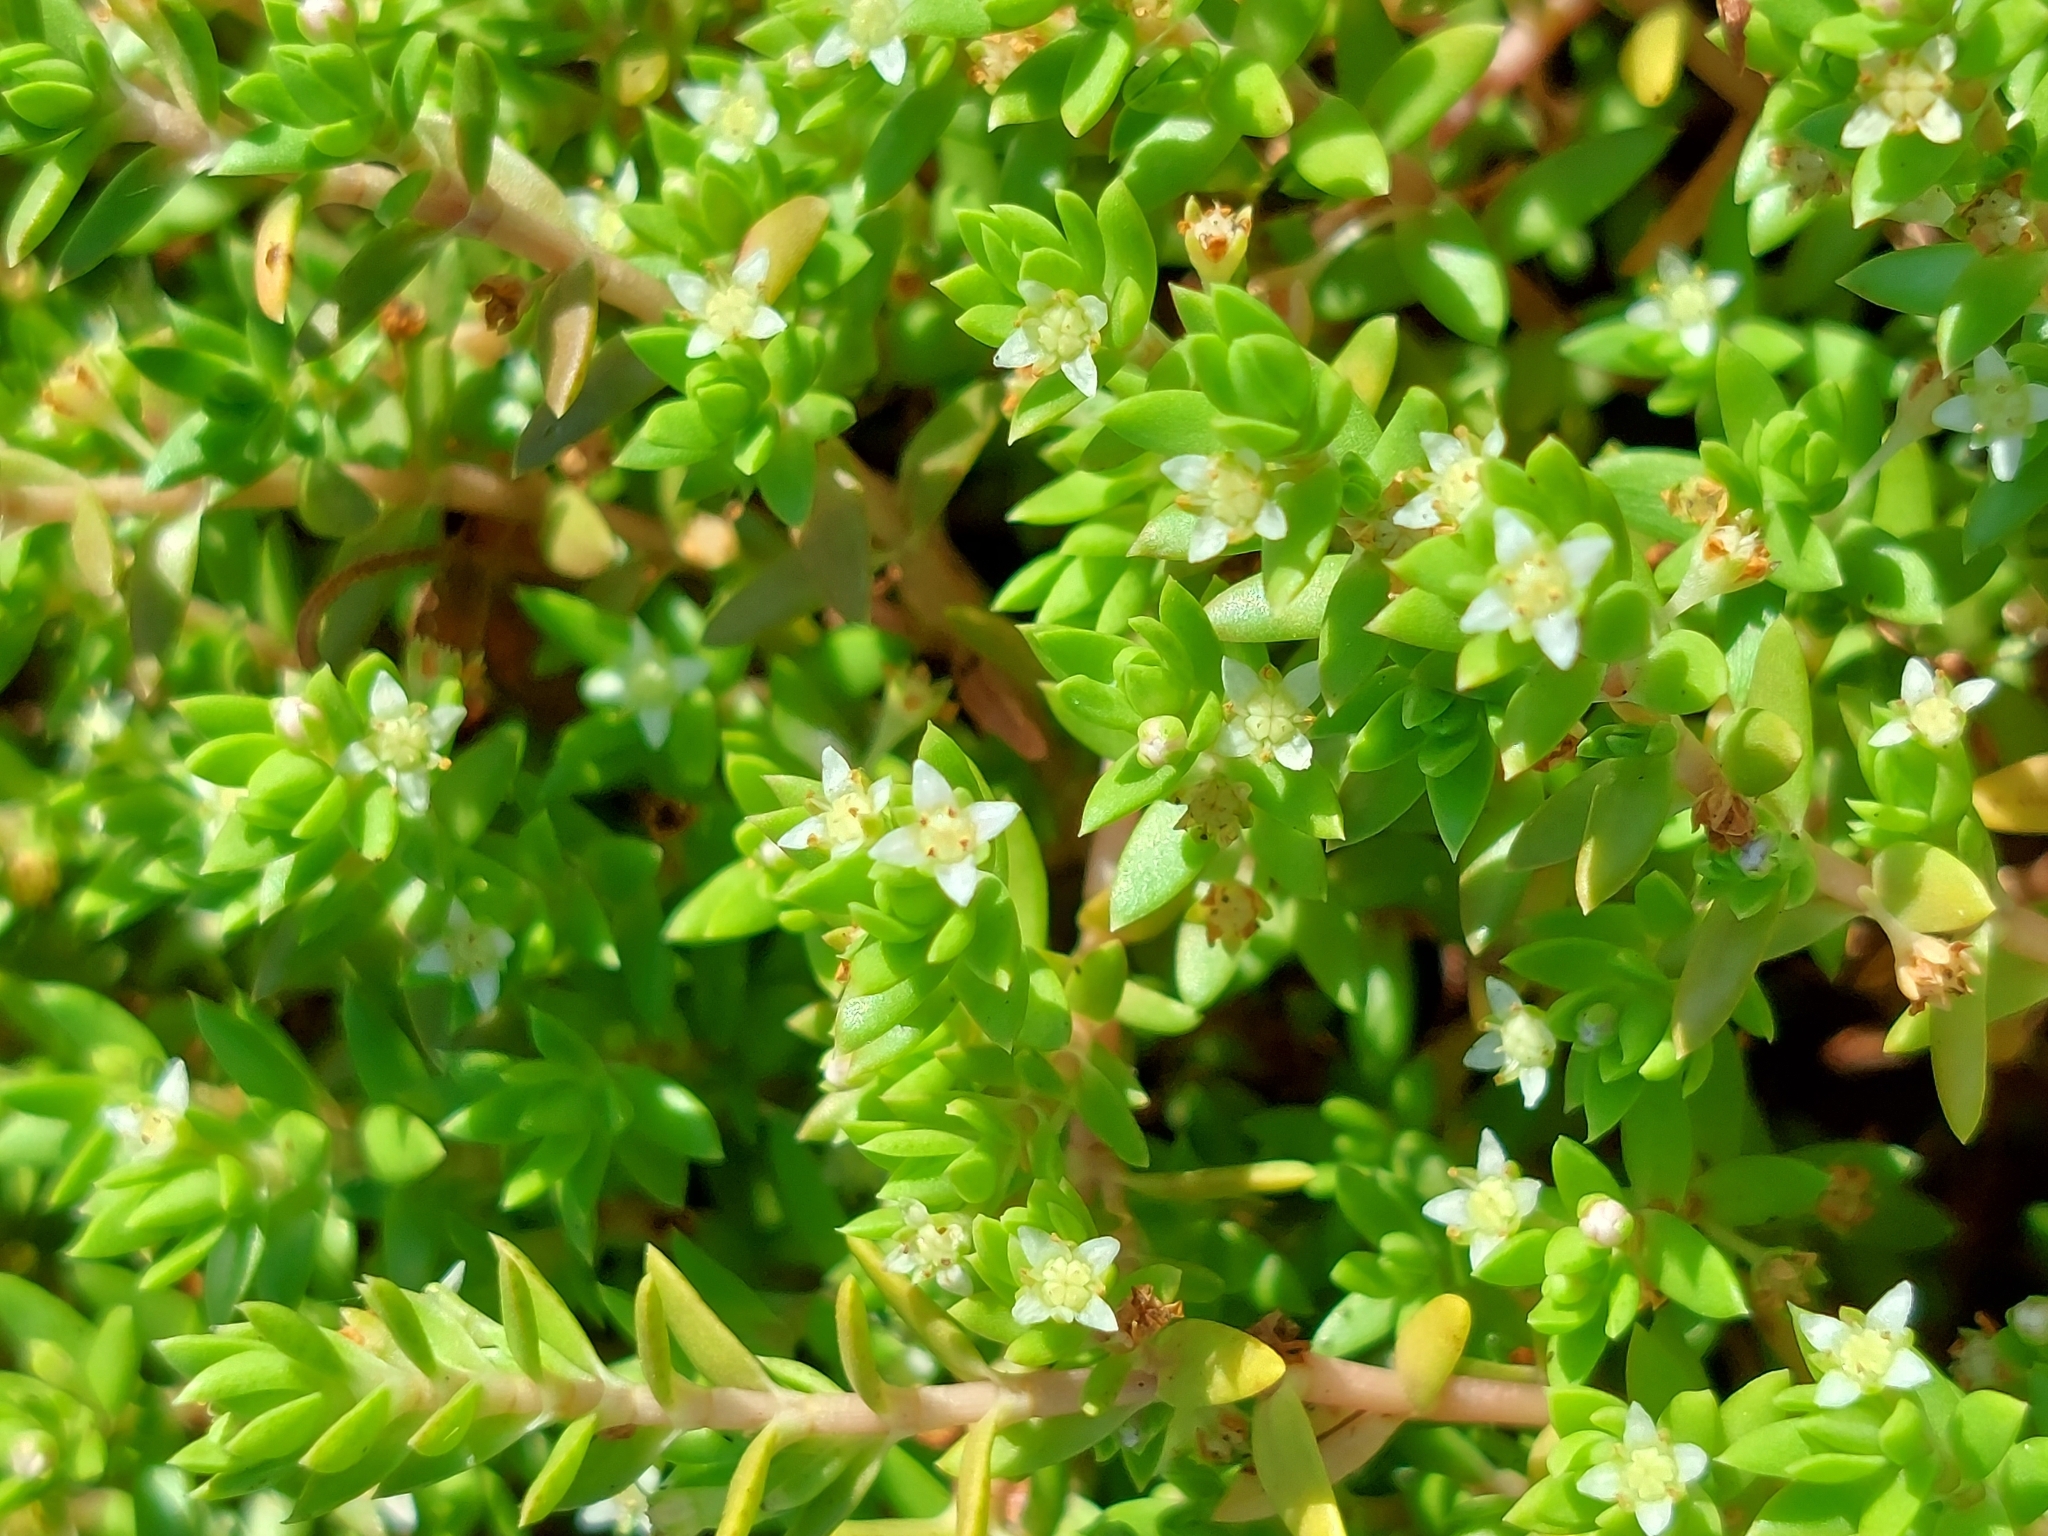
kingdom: Plantae
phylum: Tracheophyta
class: Magnoliopsida
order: Saxifragales
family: Crassulaceae
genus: Crassula
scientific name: Crassula helmsii
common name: New zealand pigmyweed
